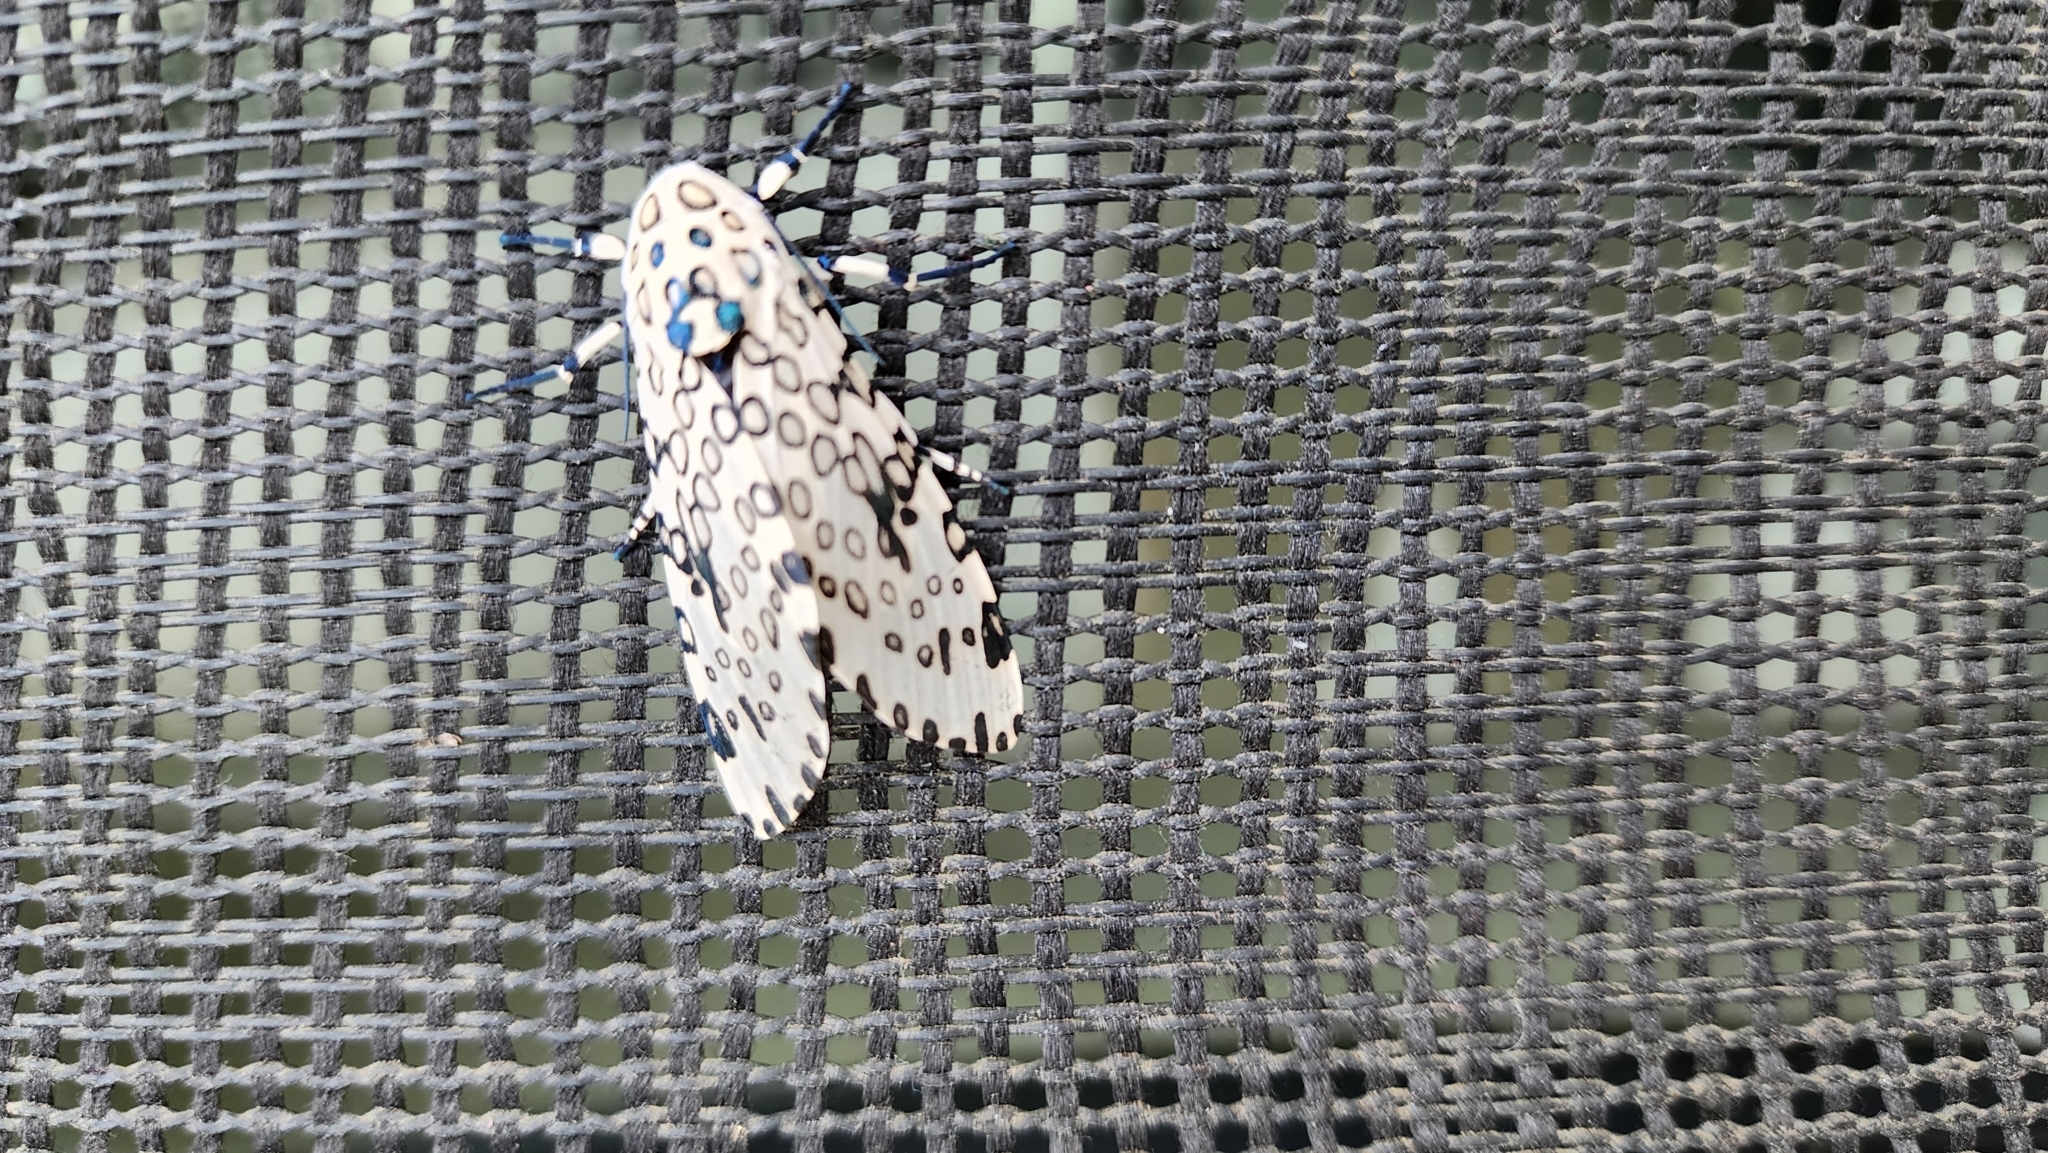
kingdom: Animalia
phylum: Arthropoda
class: Insecta
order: Lepidoptera
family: Erebidae
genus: Hypercompe
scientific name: Hypercompe scribonia
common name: Giant leopard moth
